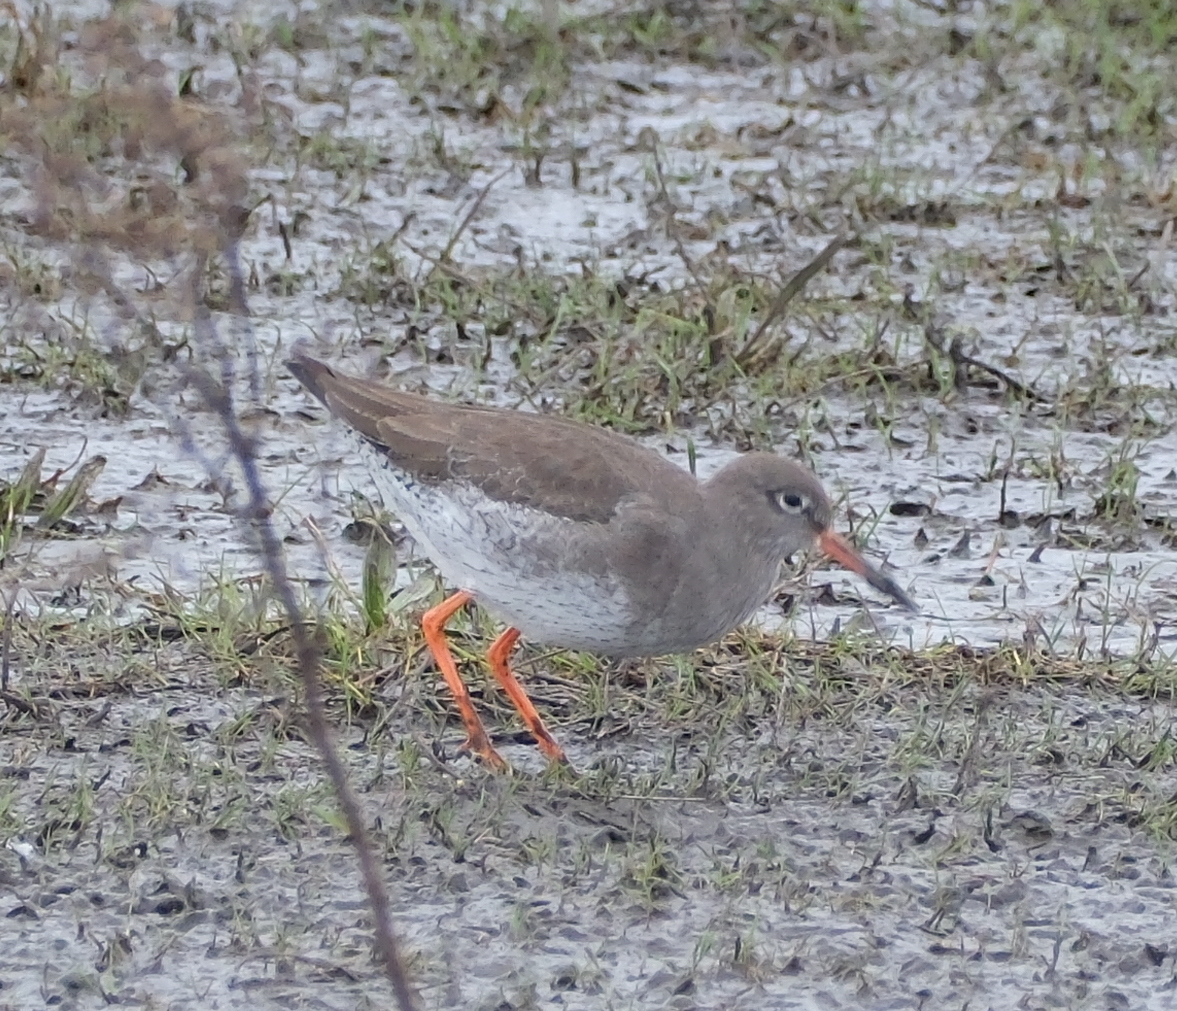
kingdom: Animalia
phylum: Chordata
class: Aves
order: Charadriiformes
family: Scolopacidae
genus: Tringa
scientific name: Tringa totanus
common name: Common redshank
